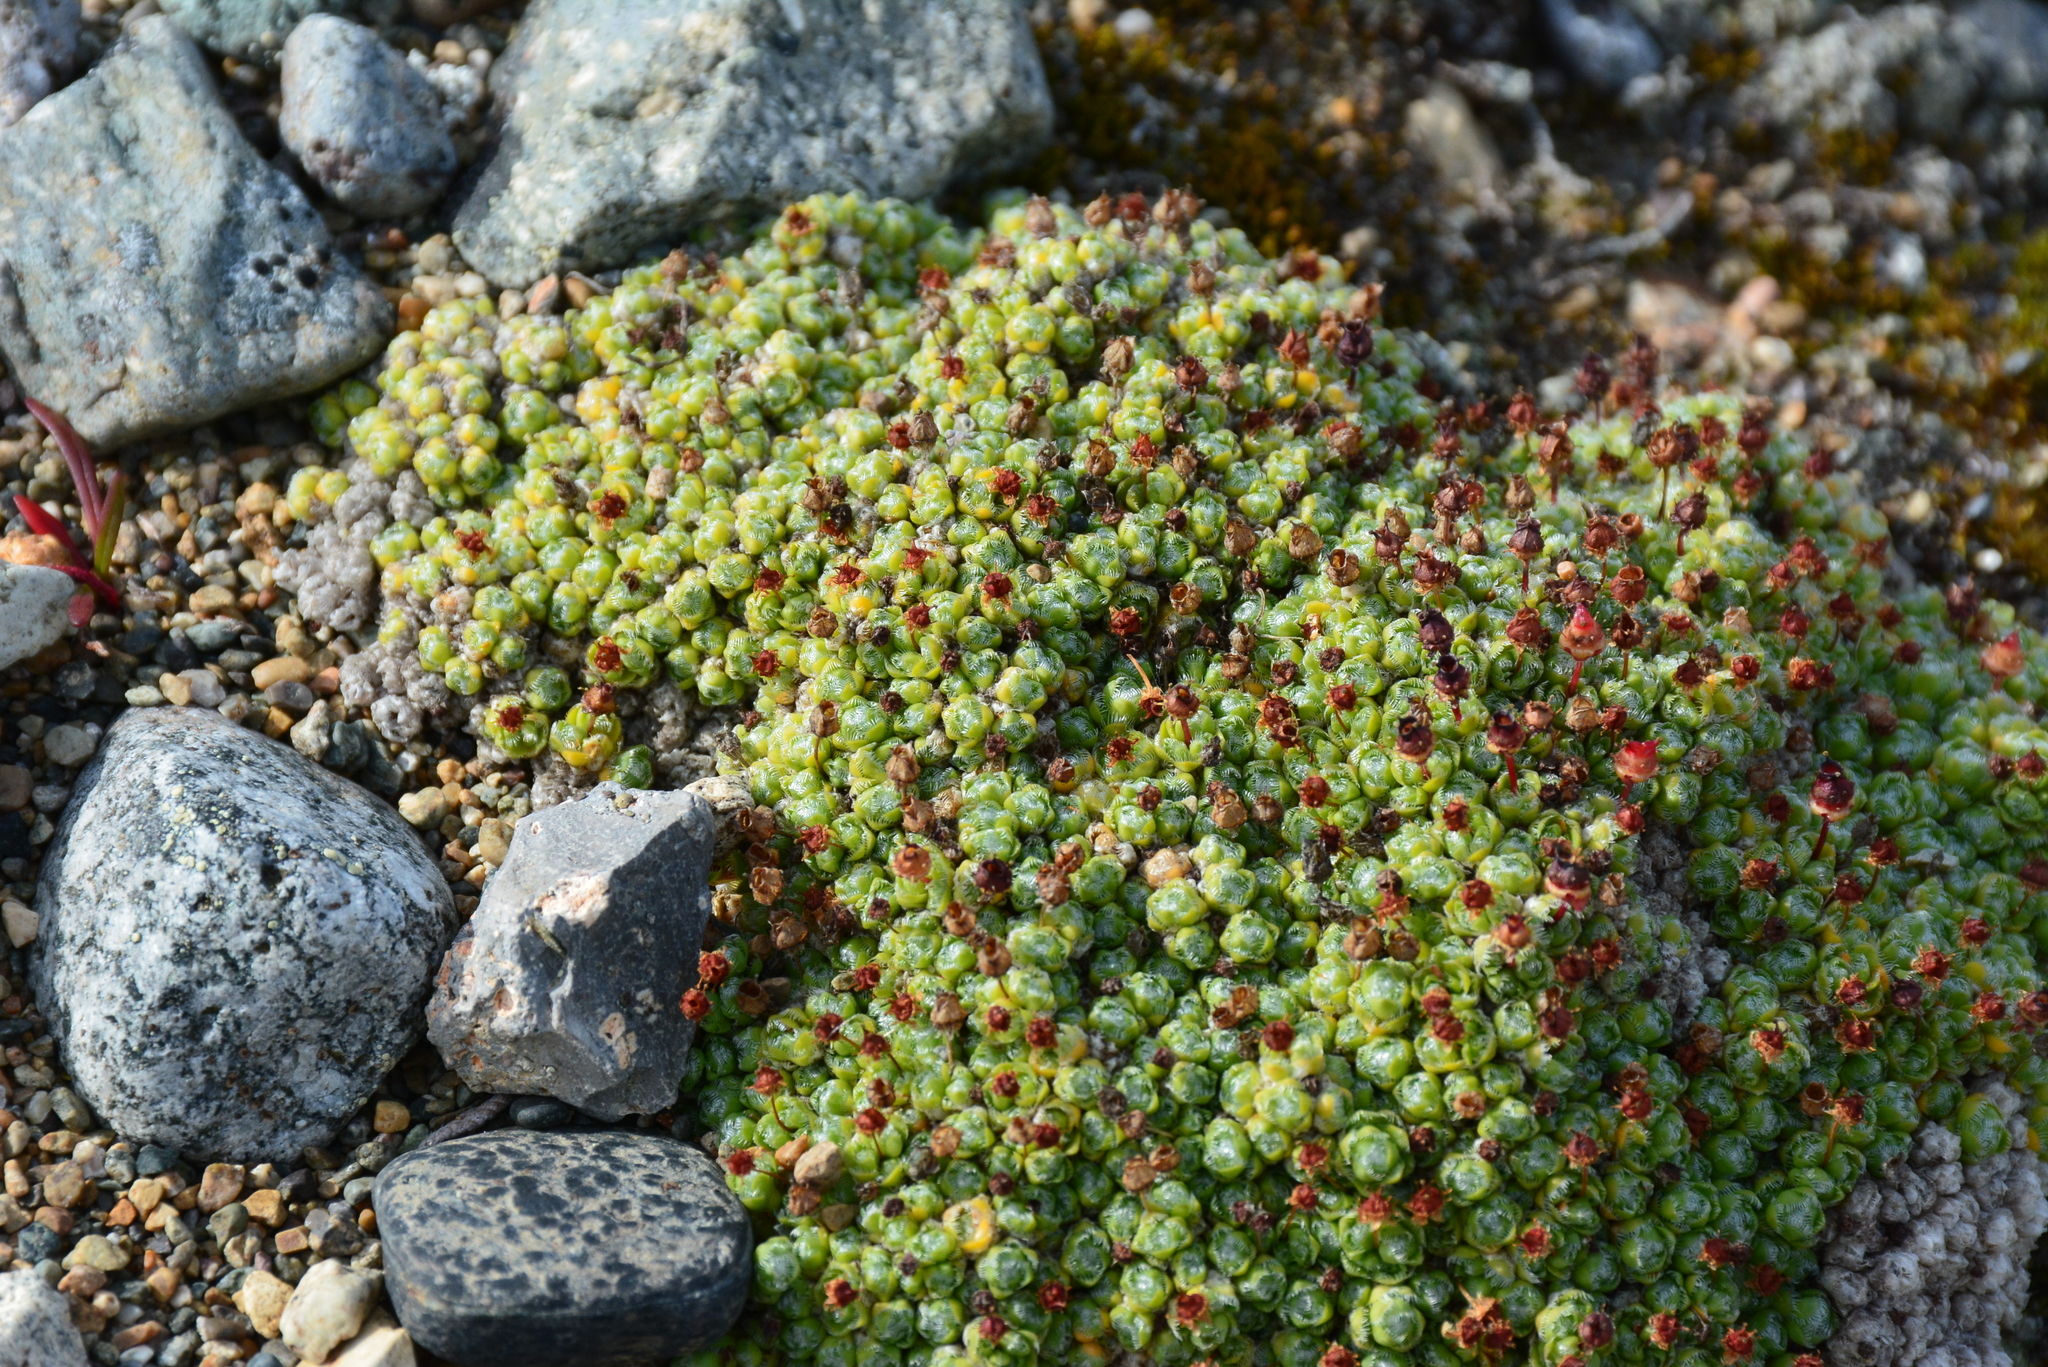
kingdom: Plantae
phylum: Tracheophyta
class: Magnoliopsida
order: Saxifragales
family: Saxifragaceae
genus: Saxifraga
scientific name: Saxifraga eschscholtzii
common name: Eschscholtz's saxifrage
